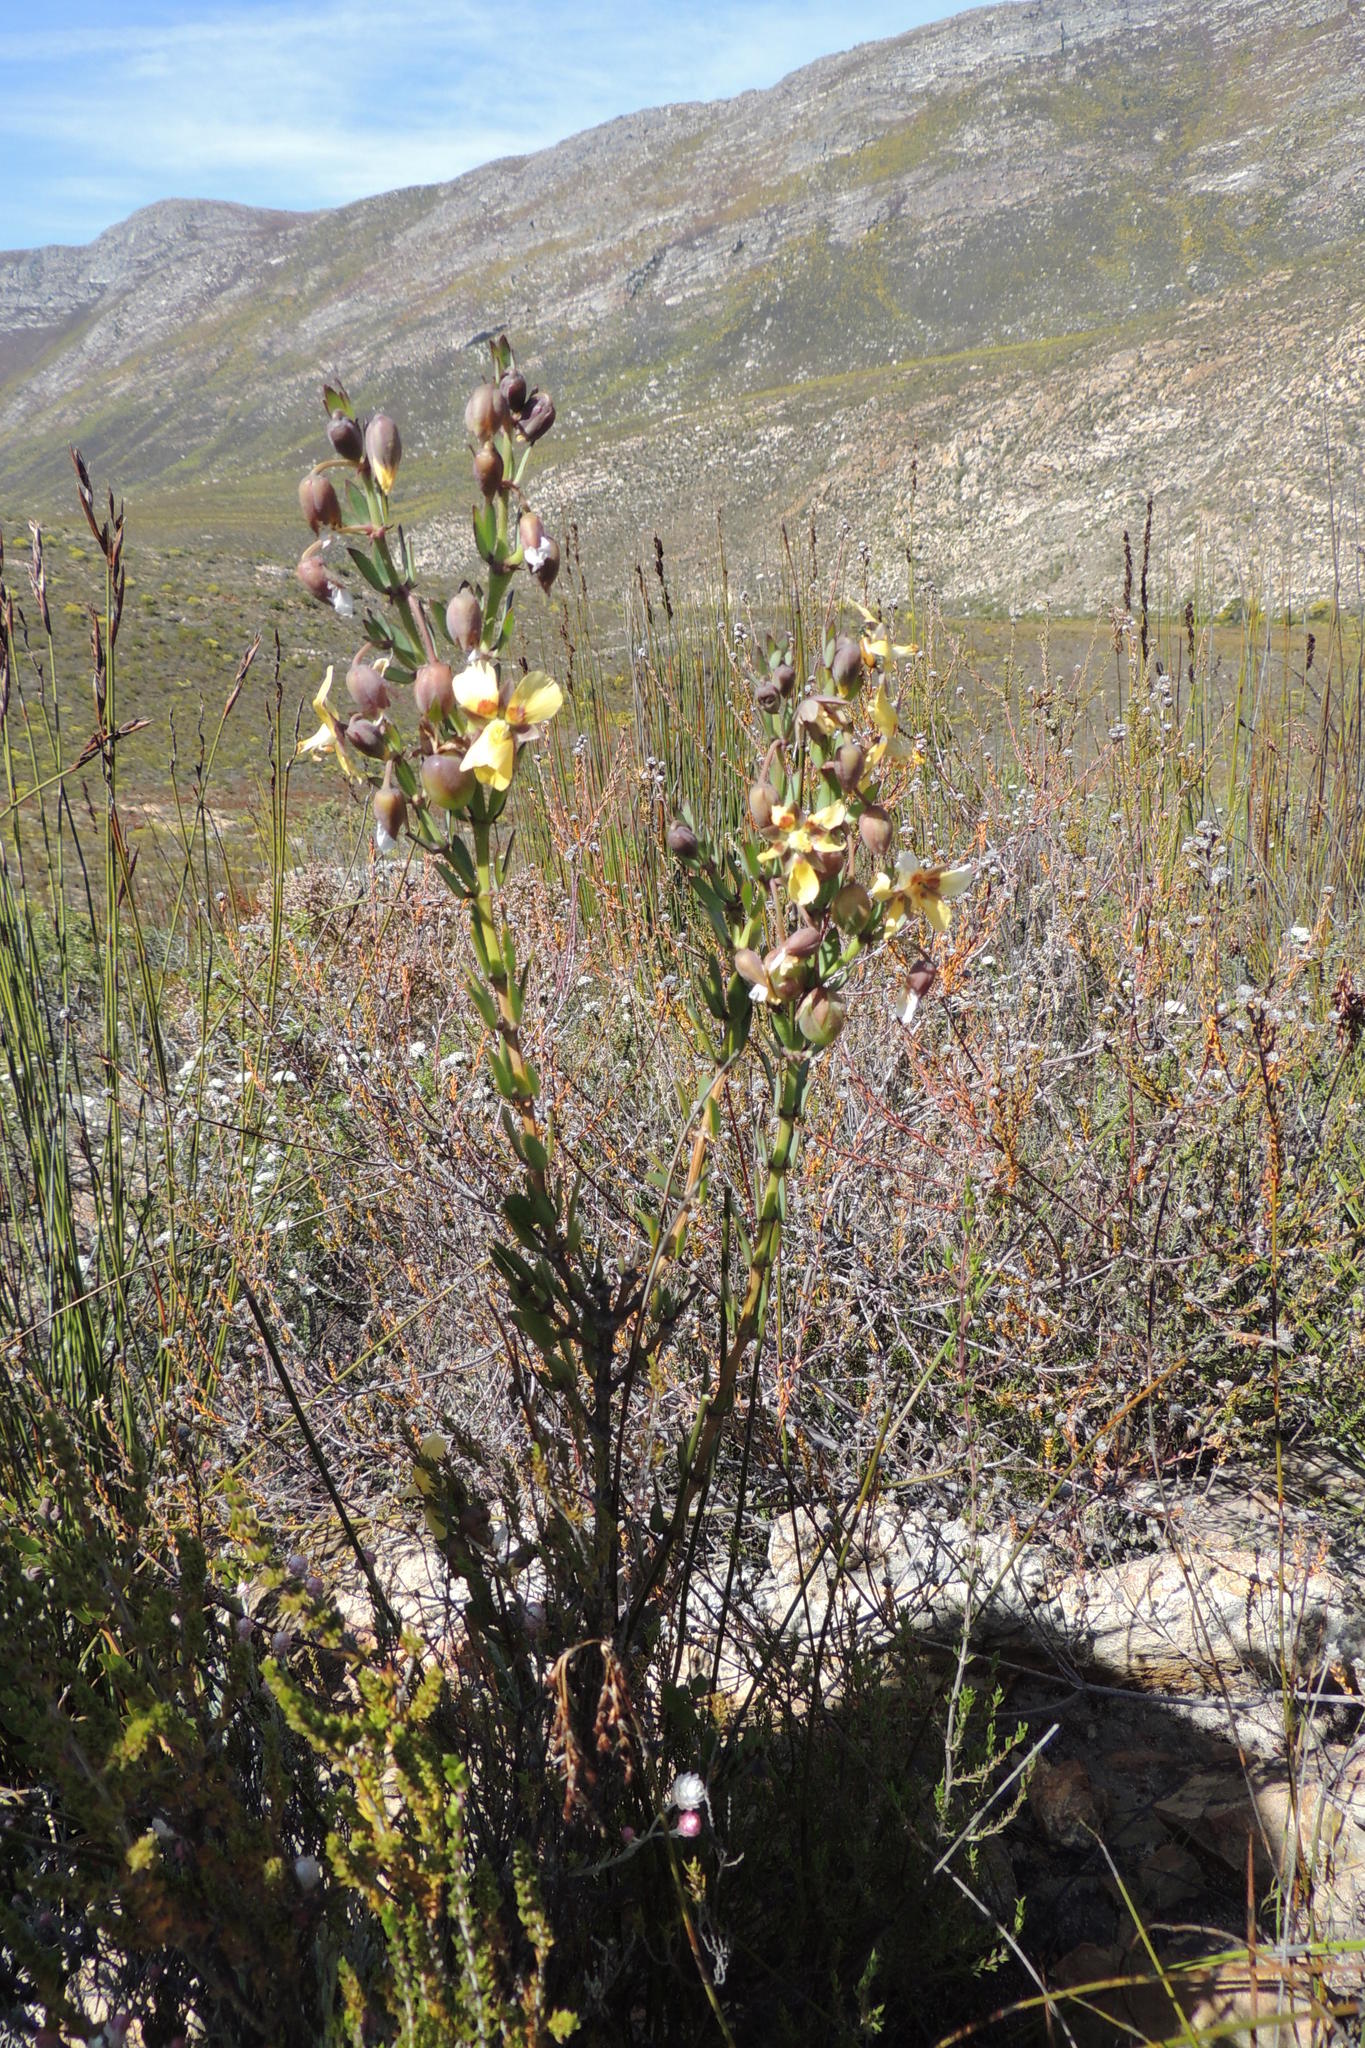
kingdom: Plantae
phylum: Tracheophyta
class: Magnoliopsida
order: Zygophyllales
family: Zygophyllaceae
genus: Roepera
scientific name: Roepera fulva
